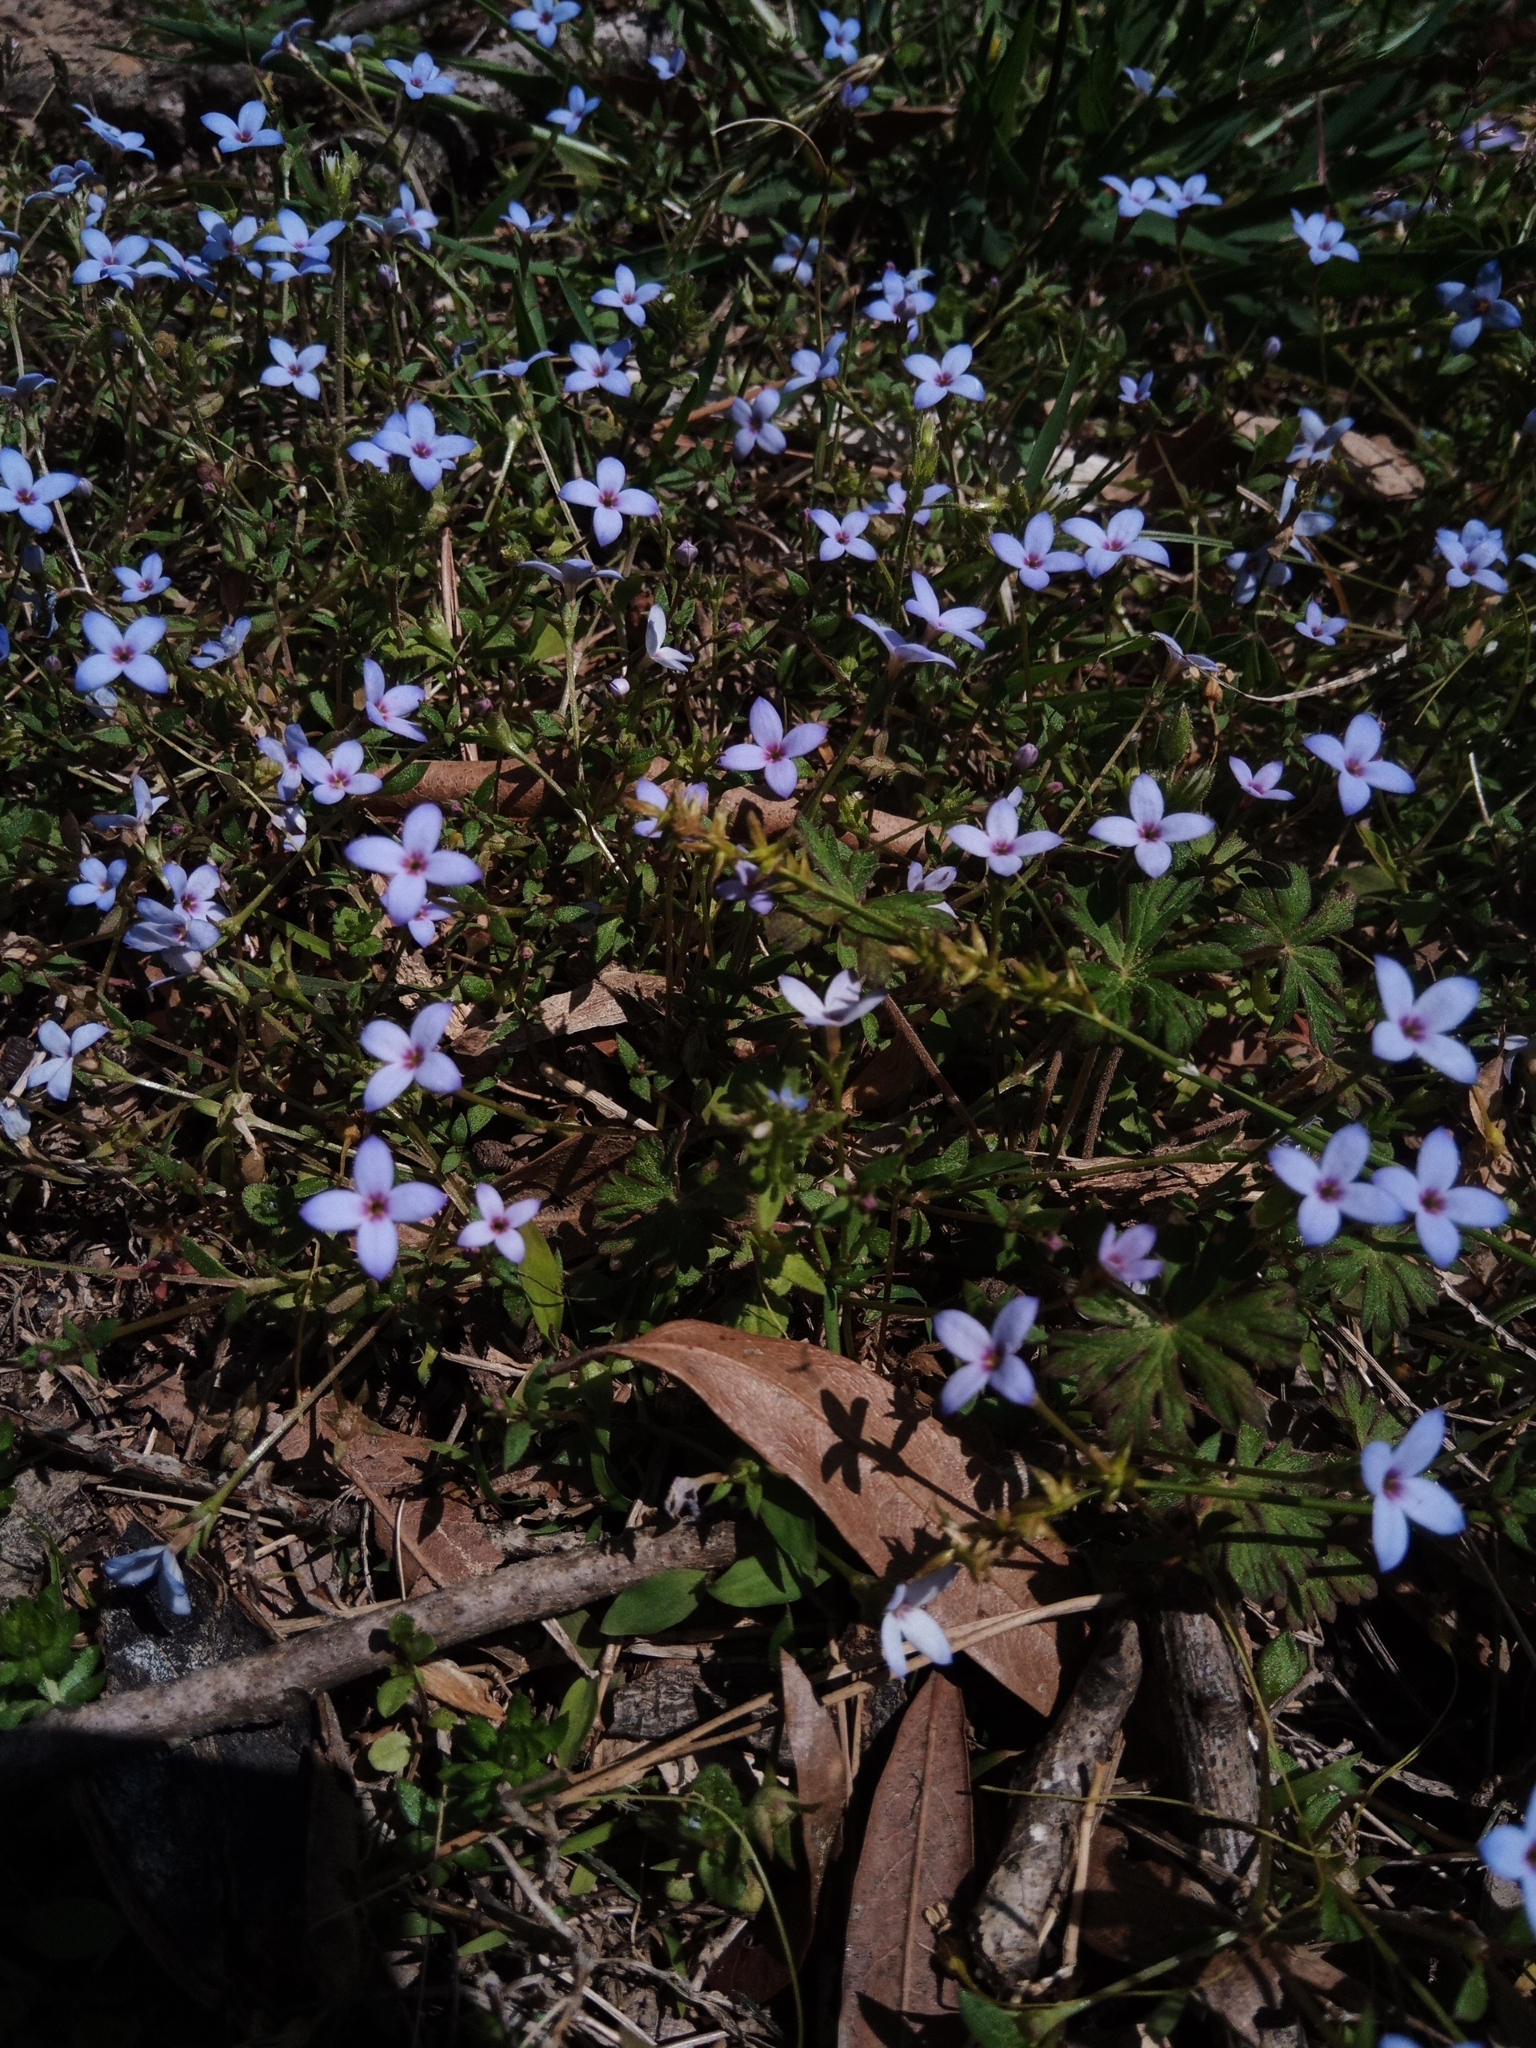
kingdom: Plantae
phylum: Tracheophyta
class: Magnoliopsida
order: Gentianales
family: Rubiaceae
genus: Houstonia
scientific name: Houstonia pusilla
